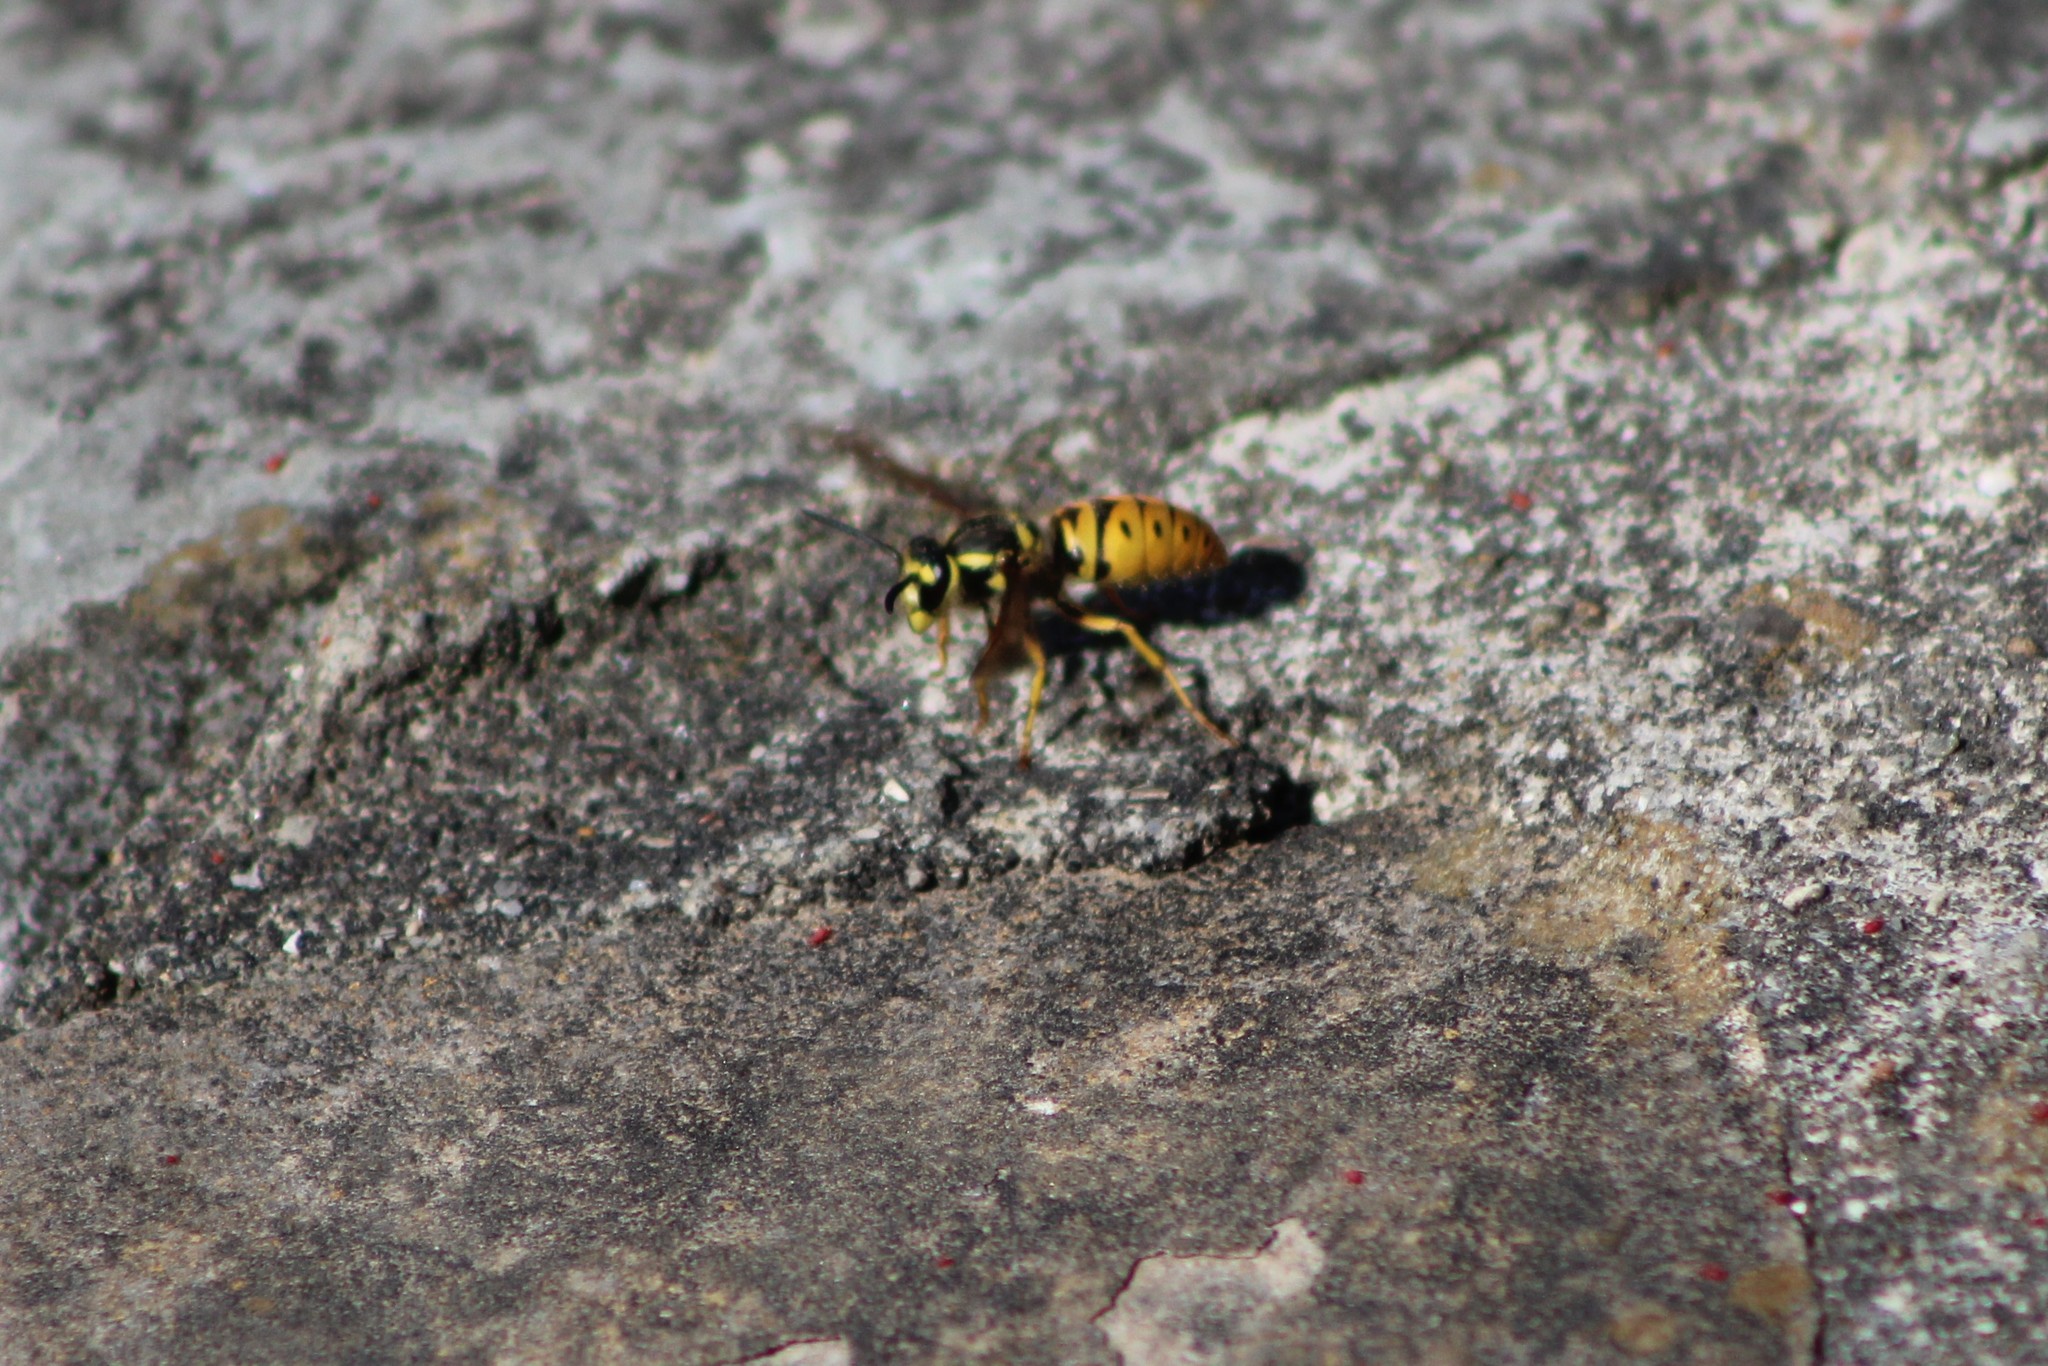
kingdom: Animalia
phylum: Arthropoda
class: Insecta
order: Hymenoptera
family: Vespidae
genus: Vespula
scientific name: Vespula maculifrons
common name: Eastern yellowjacket
